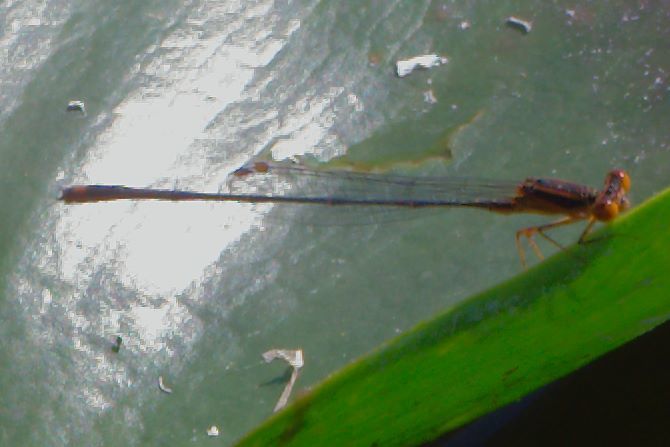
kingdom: Animalia
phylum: Arthropoda
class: Insecta
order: Odonata
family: Coenagrionidae
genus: Enallagma
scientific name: Enallagma pollutum
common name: Florida bluet
